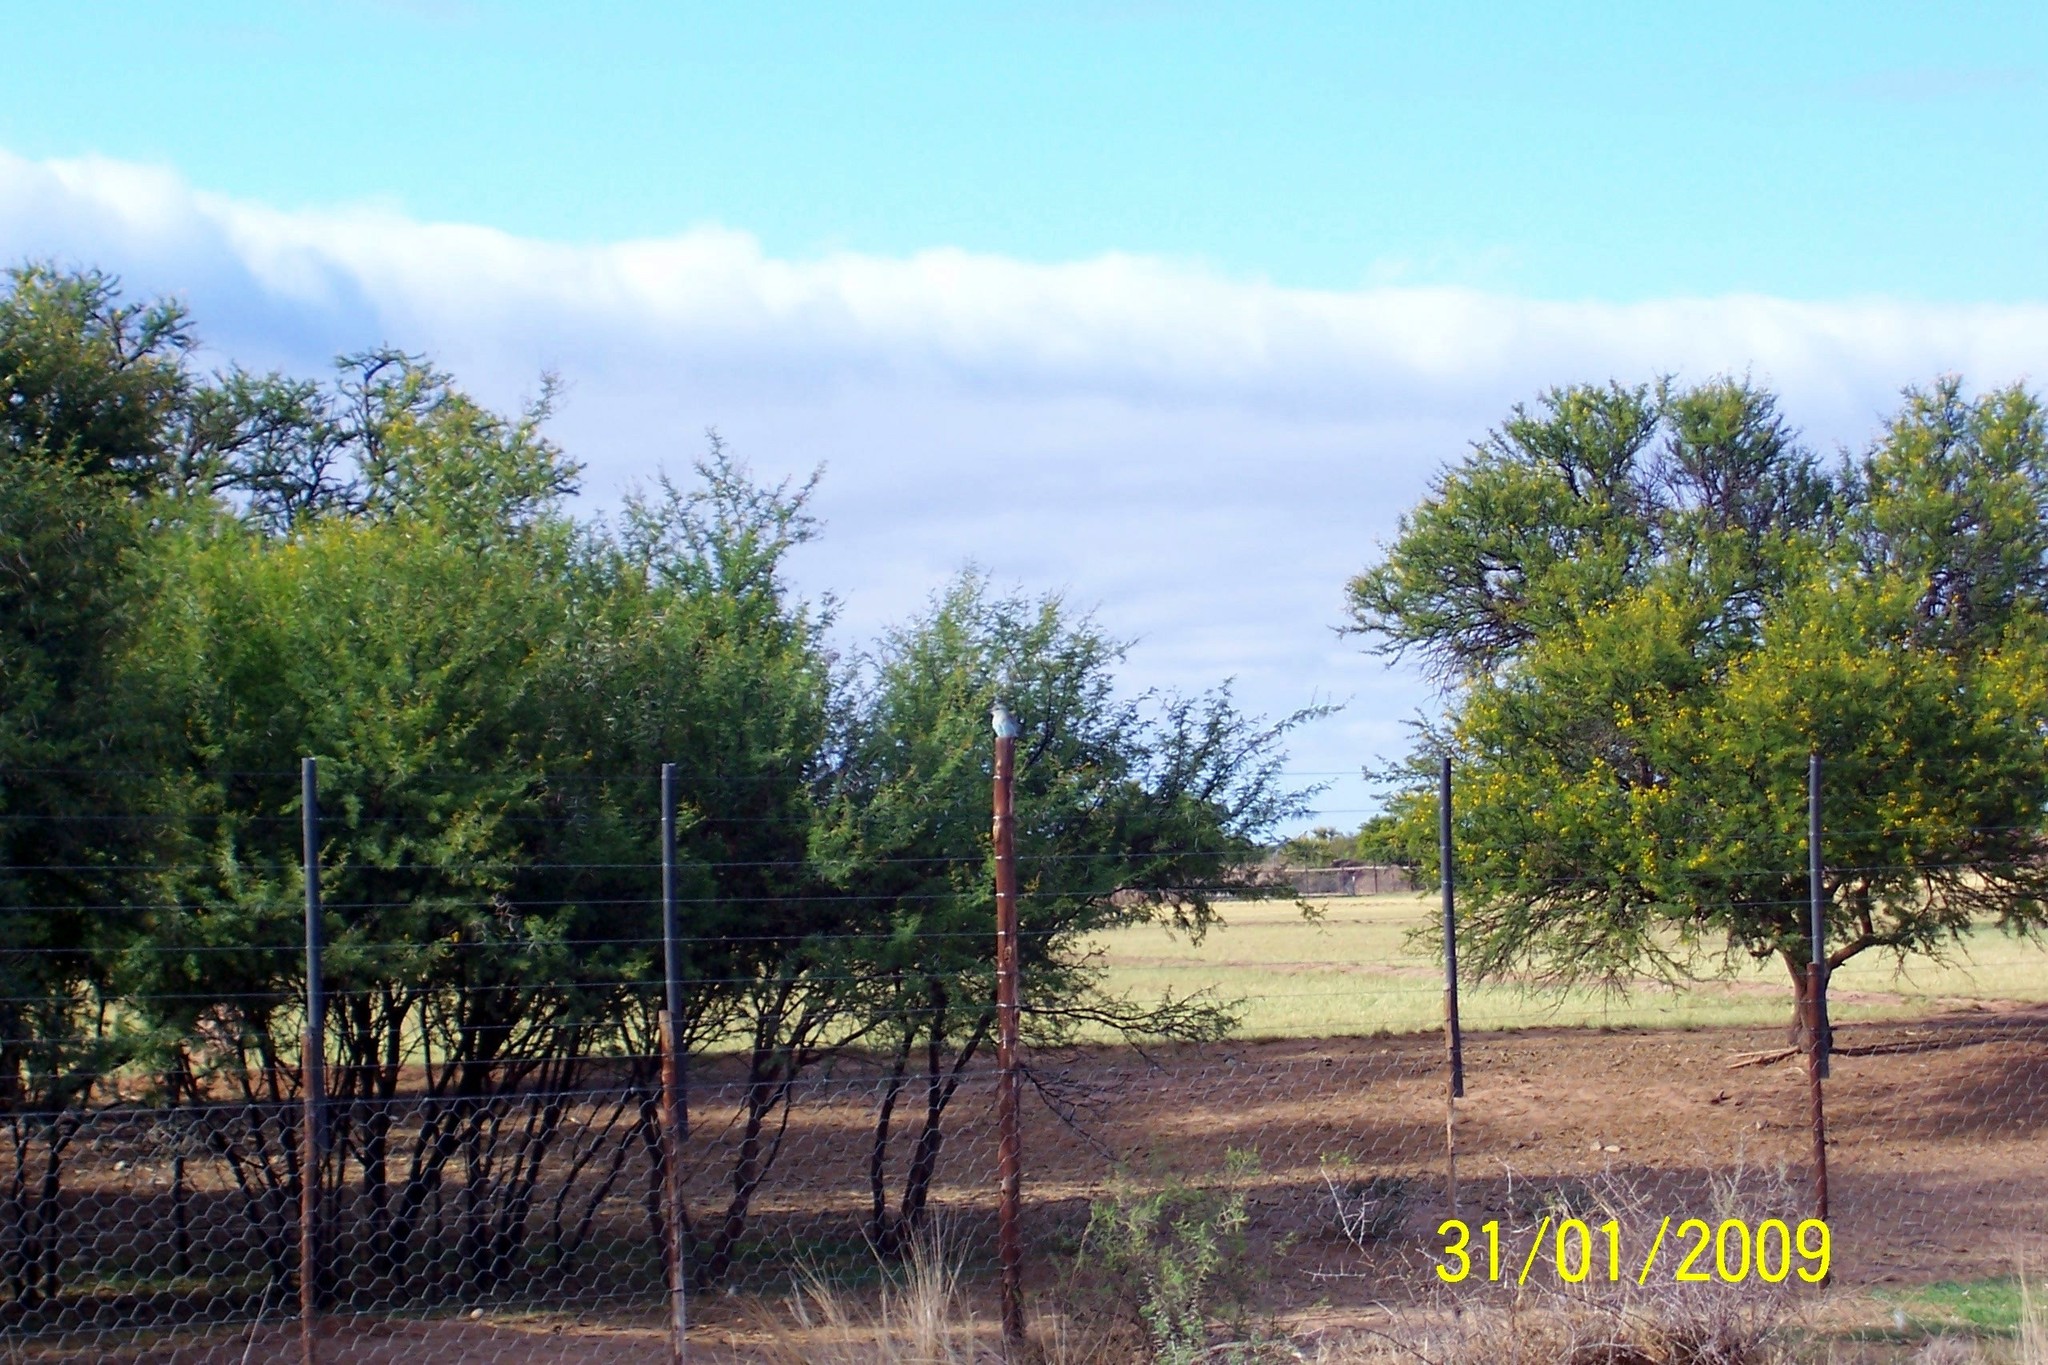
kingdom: Plantae
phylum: Tracheophyta
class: Magnoliopsida
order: Fabales
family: Fabaceae
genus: Vachellia
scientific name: Vachellia karroo
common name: Sweet thorn
